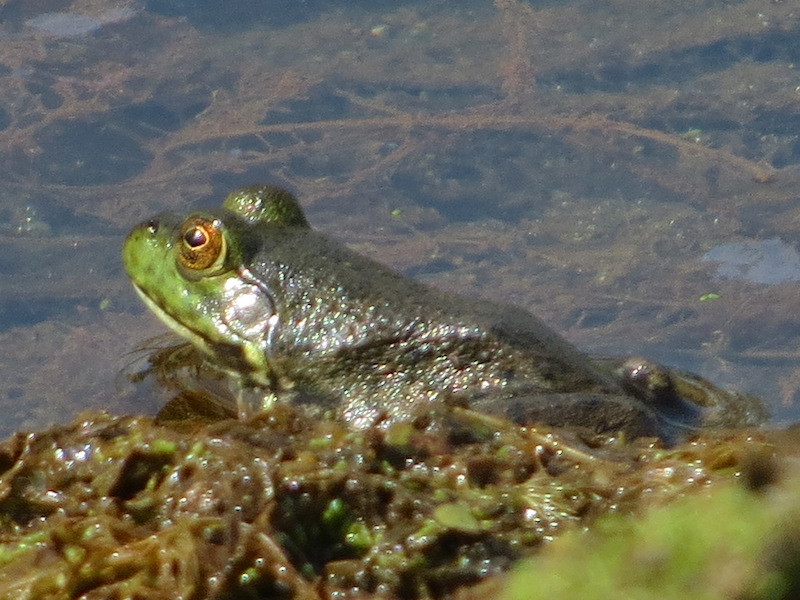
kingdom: Animalia
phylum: Chordata
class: Amphibia
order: Anura
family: Ranidae
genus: Lithobates
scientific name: Lithobates catesbeianus
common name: American bullfrog
